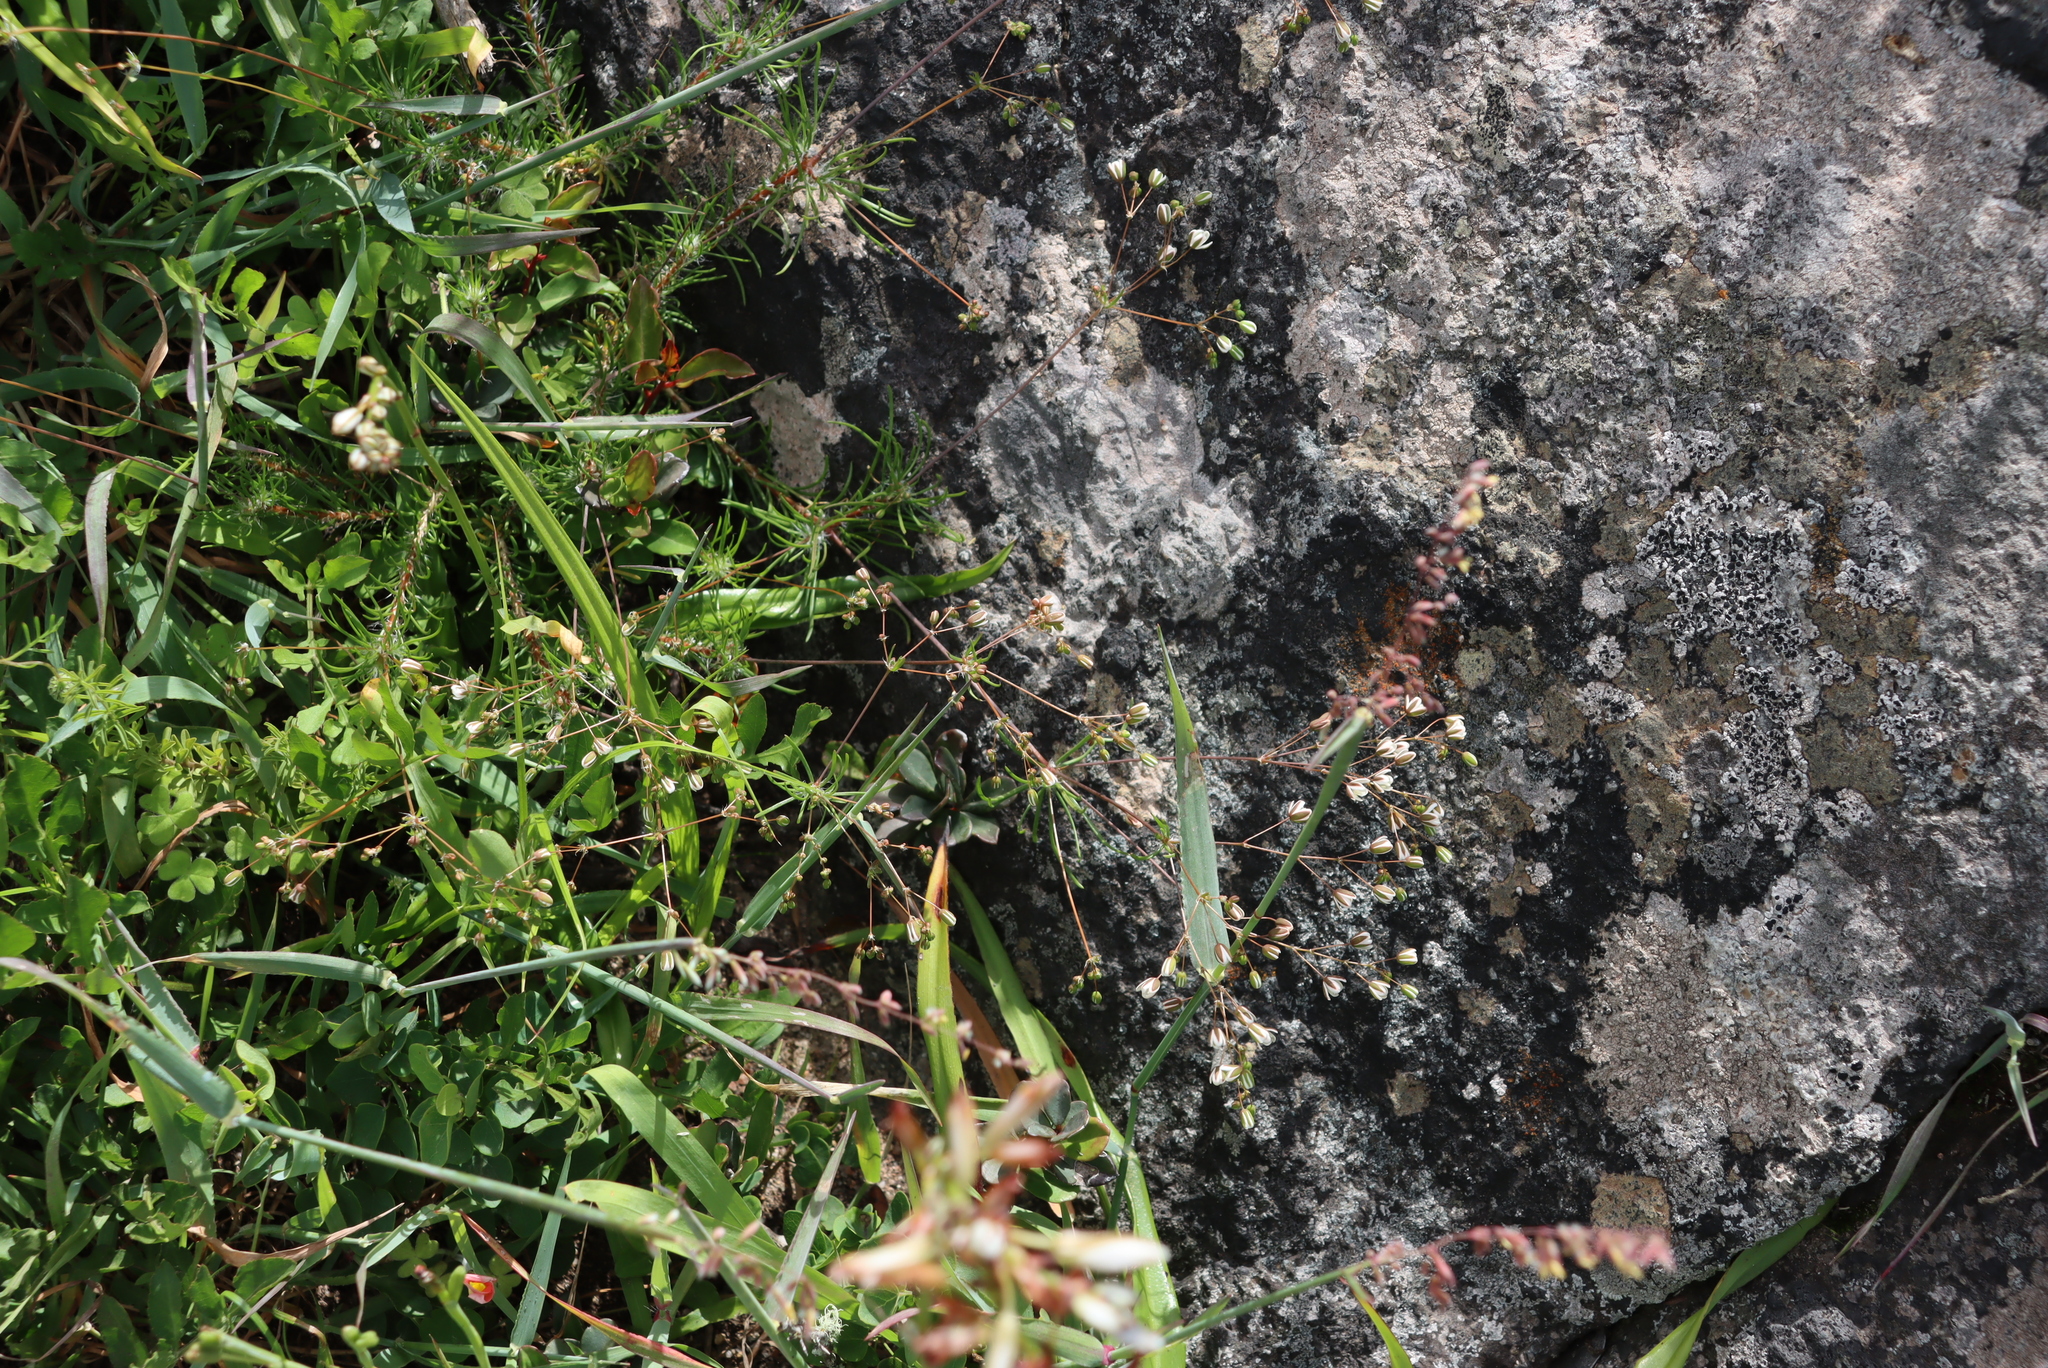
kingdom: Plantae
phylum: Tracheophyta
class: Magnoliopsida
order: Caryophyllales
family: Molluginaceae
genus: Pharnaceum
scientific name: Pharnaceum elongatum
